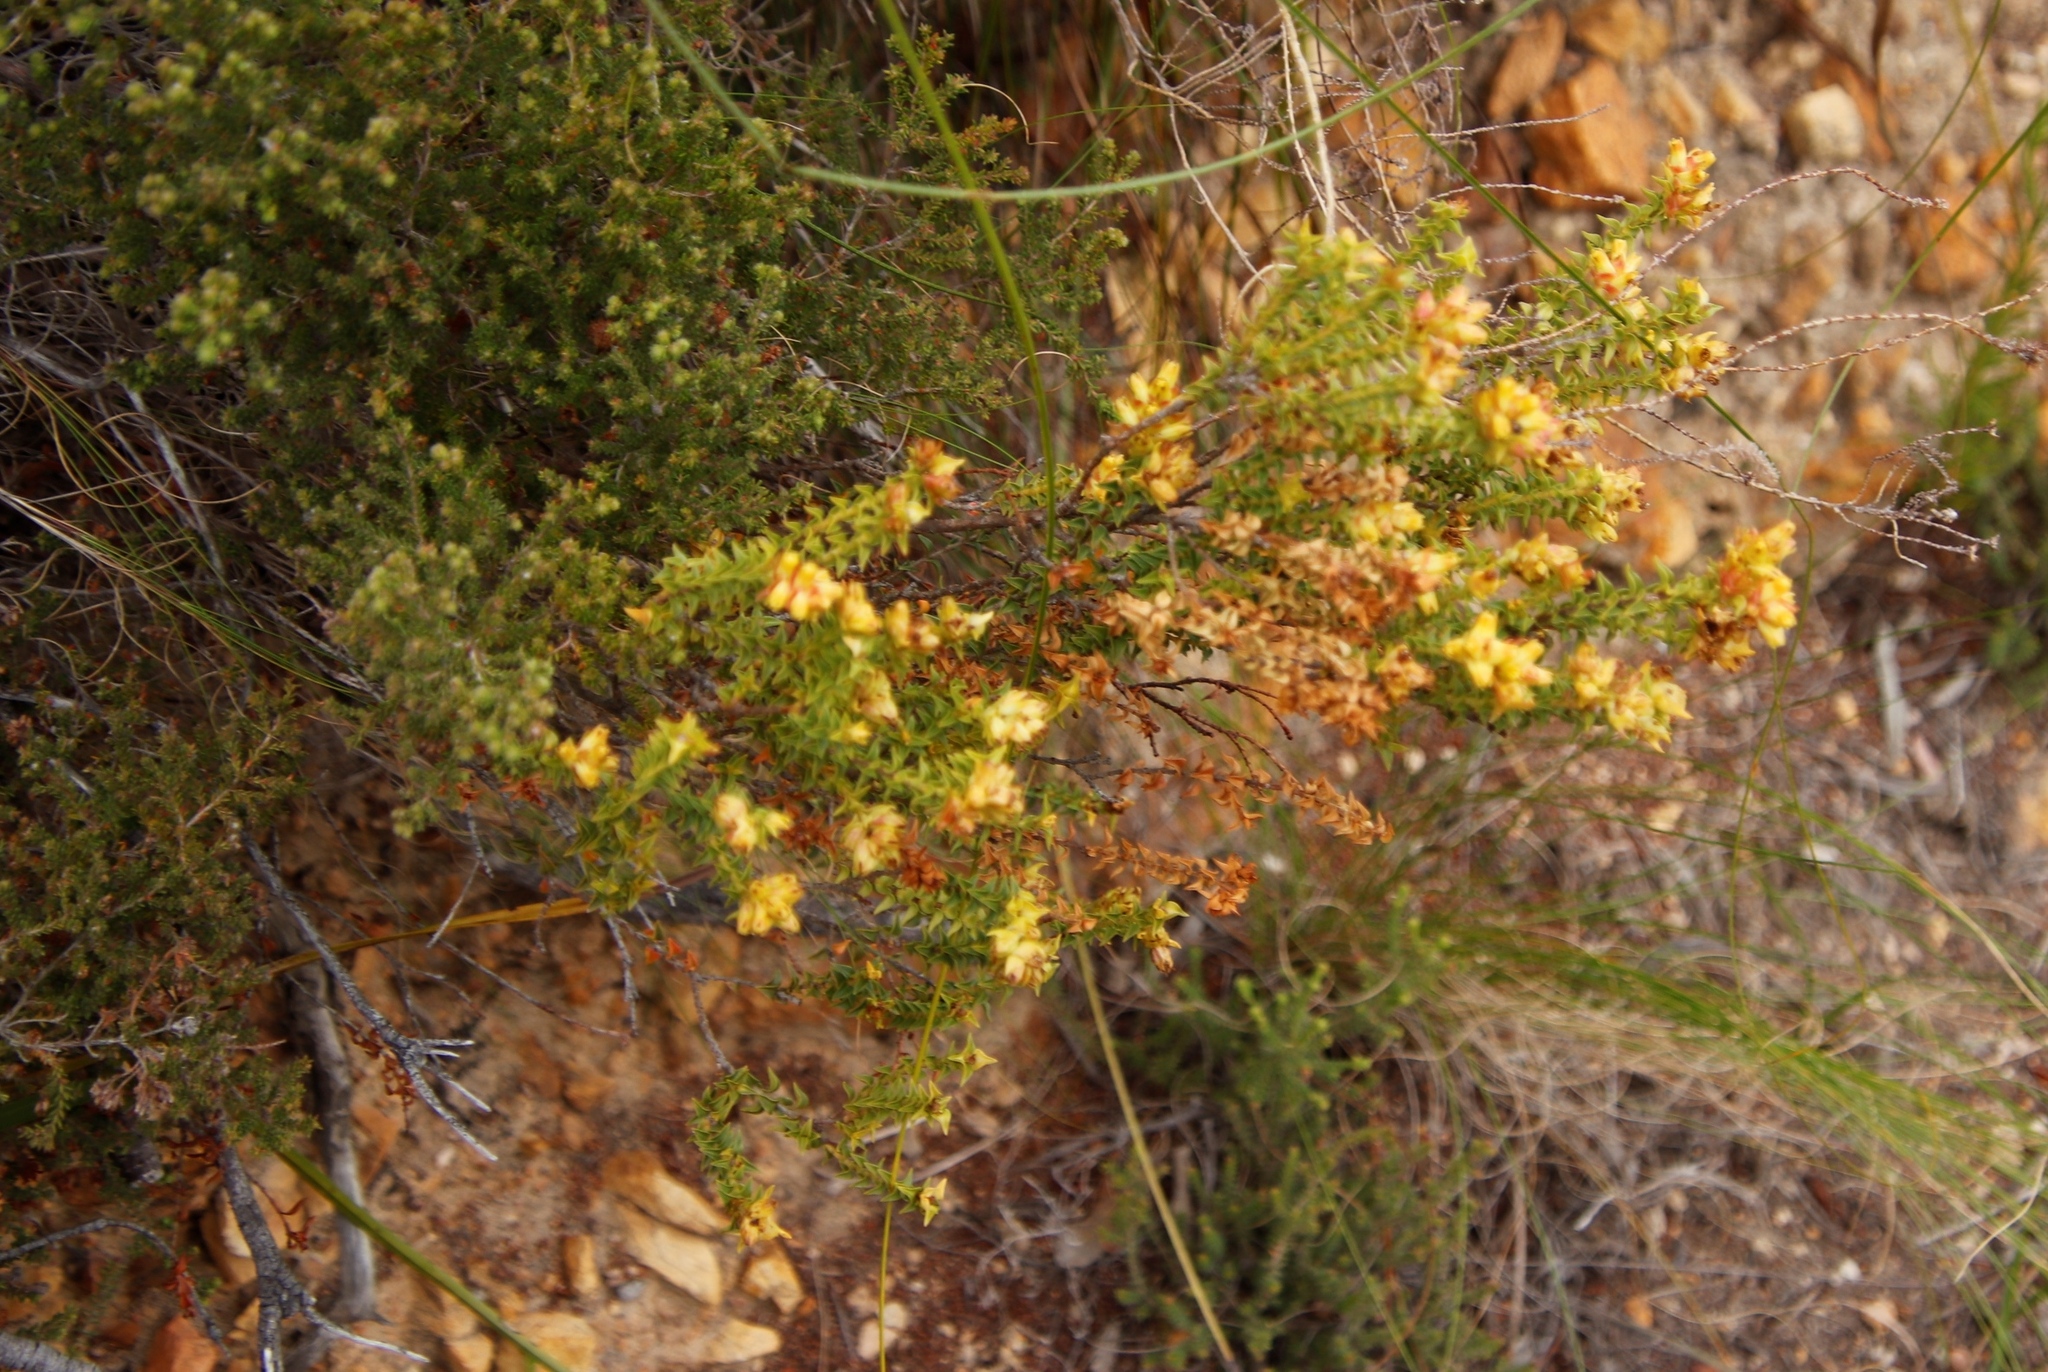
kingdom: Plantae
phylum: Tracheophyta
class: Magnoliopsida
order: Myrtales
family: Penaeaceae
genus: Penaea
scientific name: Penaea mucronata
